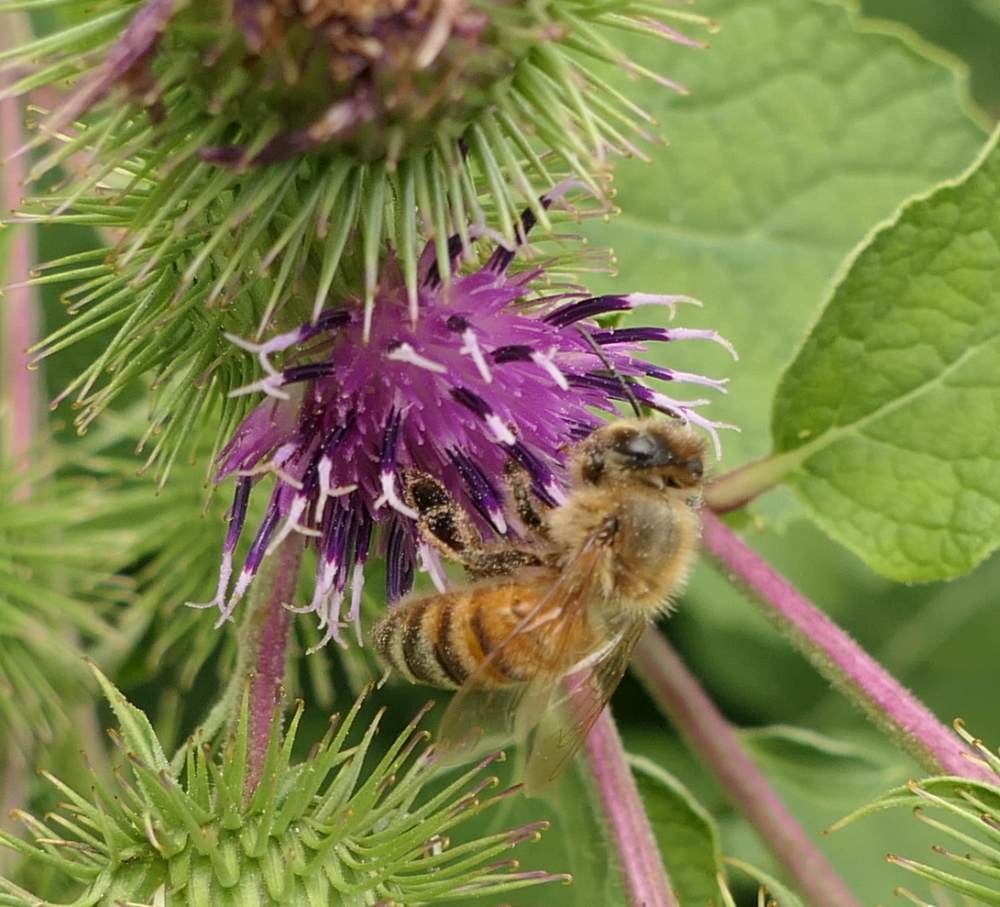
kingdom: Animalia
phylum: Arthropoda
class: Insecta
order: Hymenoptera
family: Apidae
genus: Apis
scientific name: Apis mellifera
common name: Honey bee
